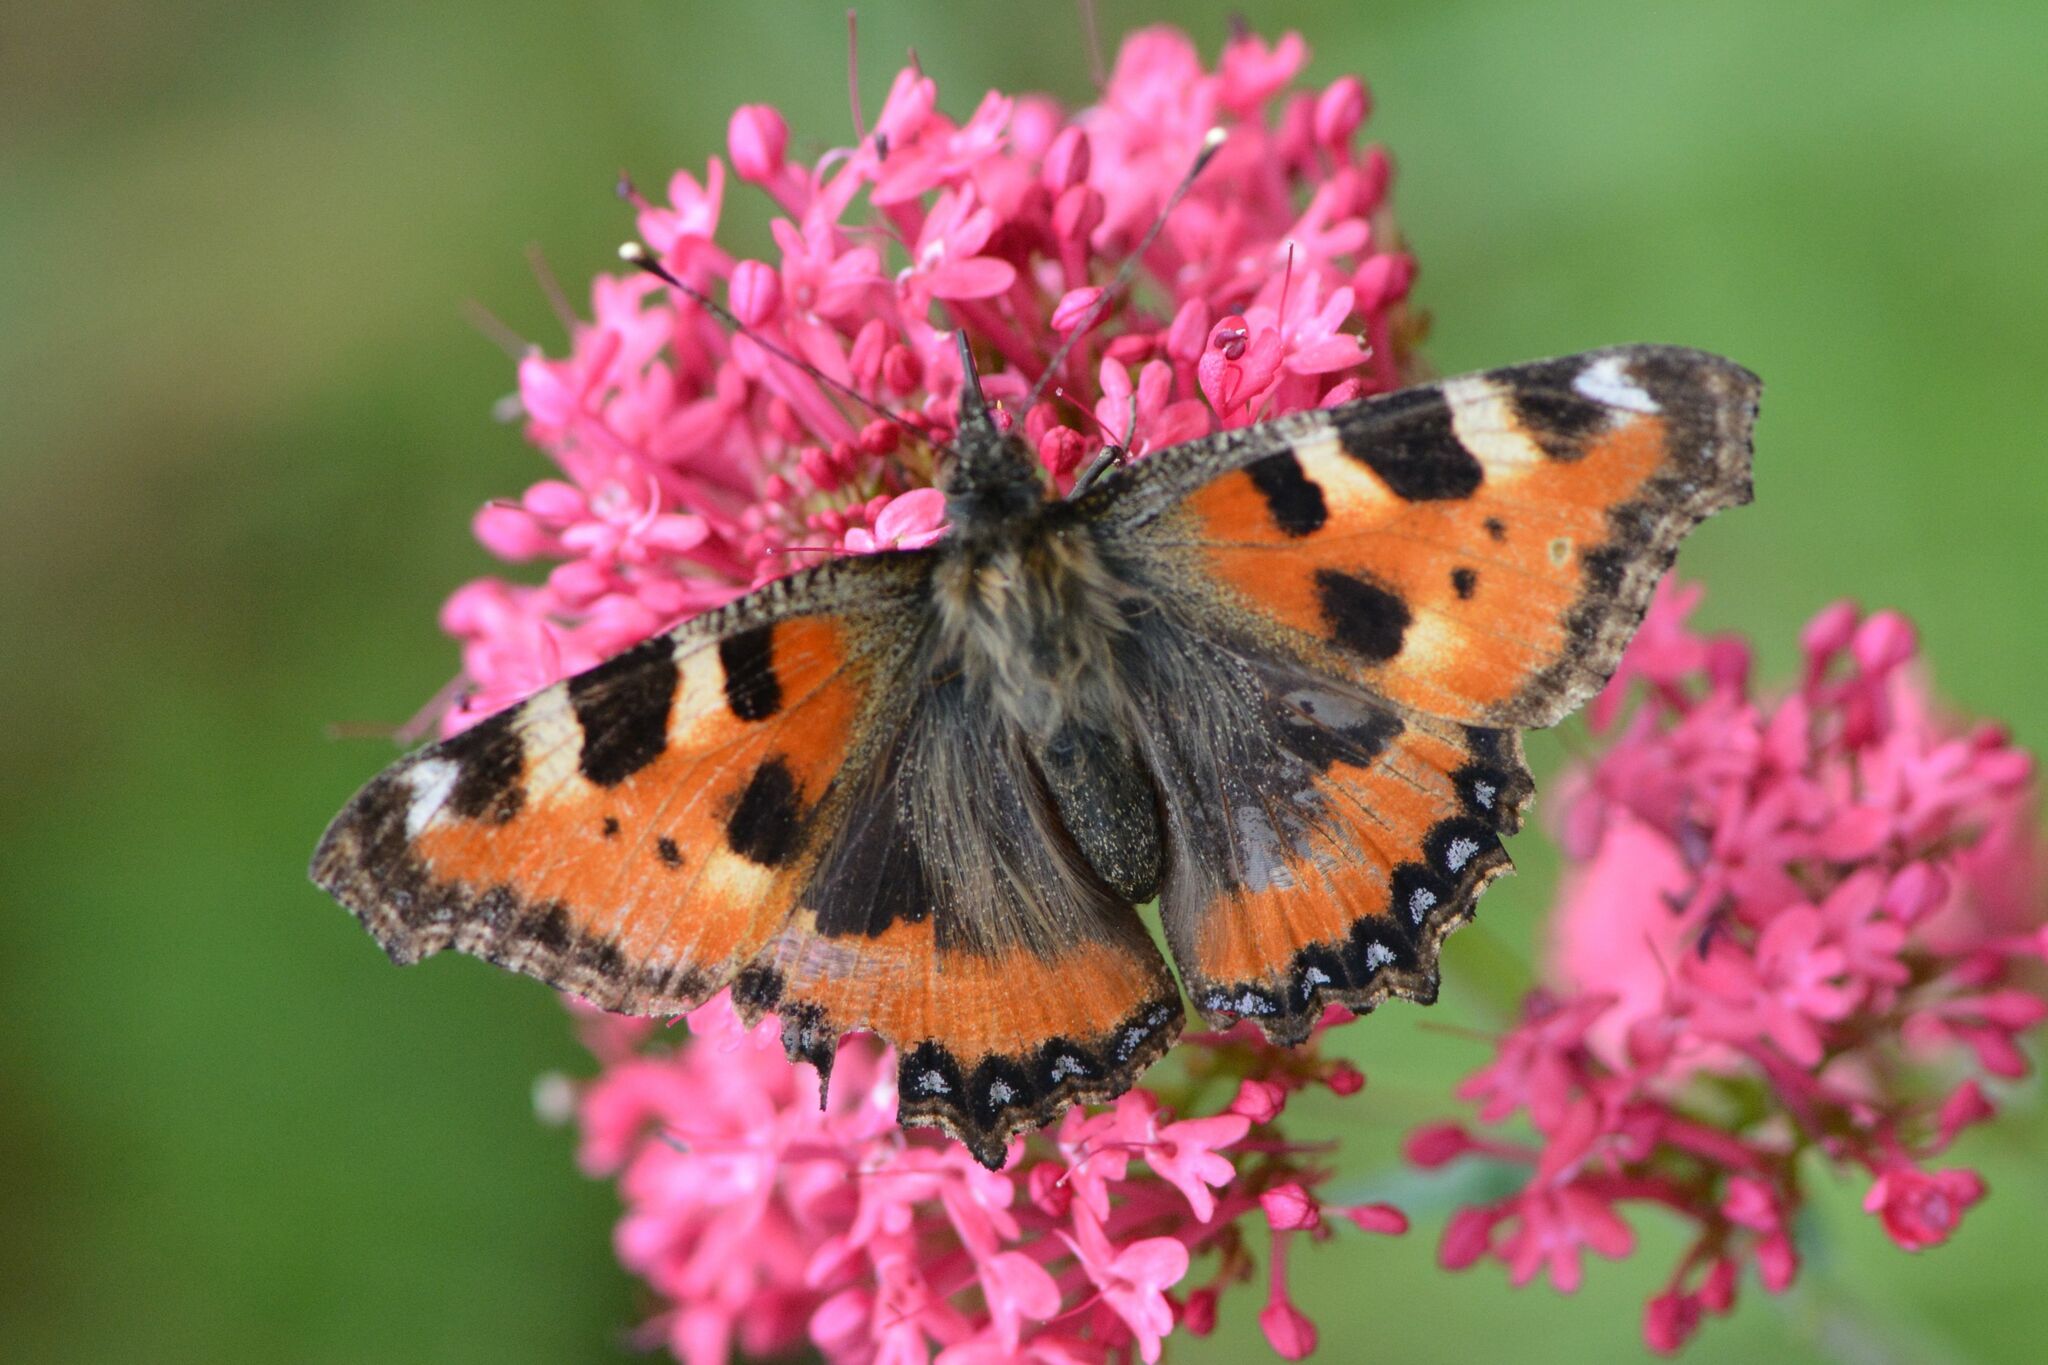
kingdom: Animalia
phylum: Arthropoda
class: Insecta
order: Lepidoptera
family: Nymphalidae
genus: Aglais
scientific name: Aglais urticae
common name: Small tortoiseshell
